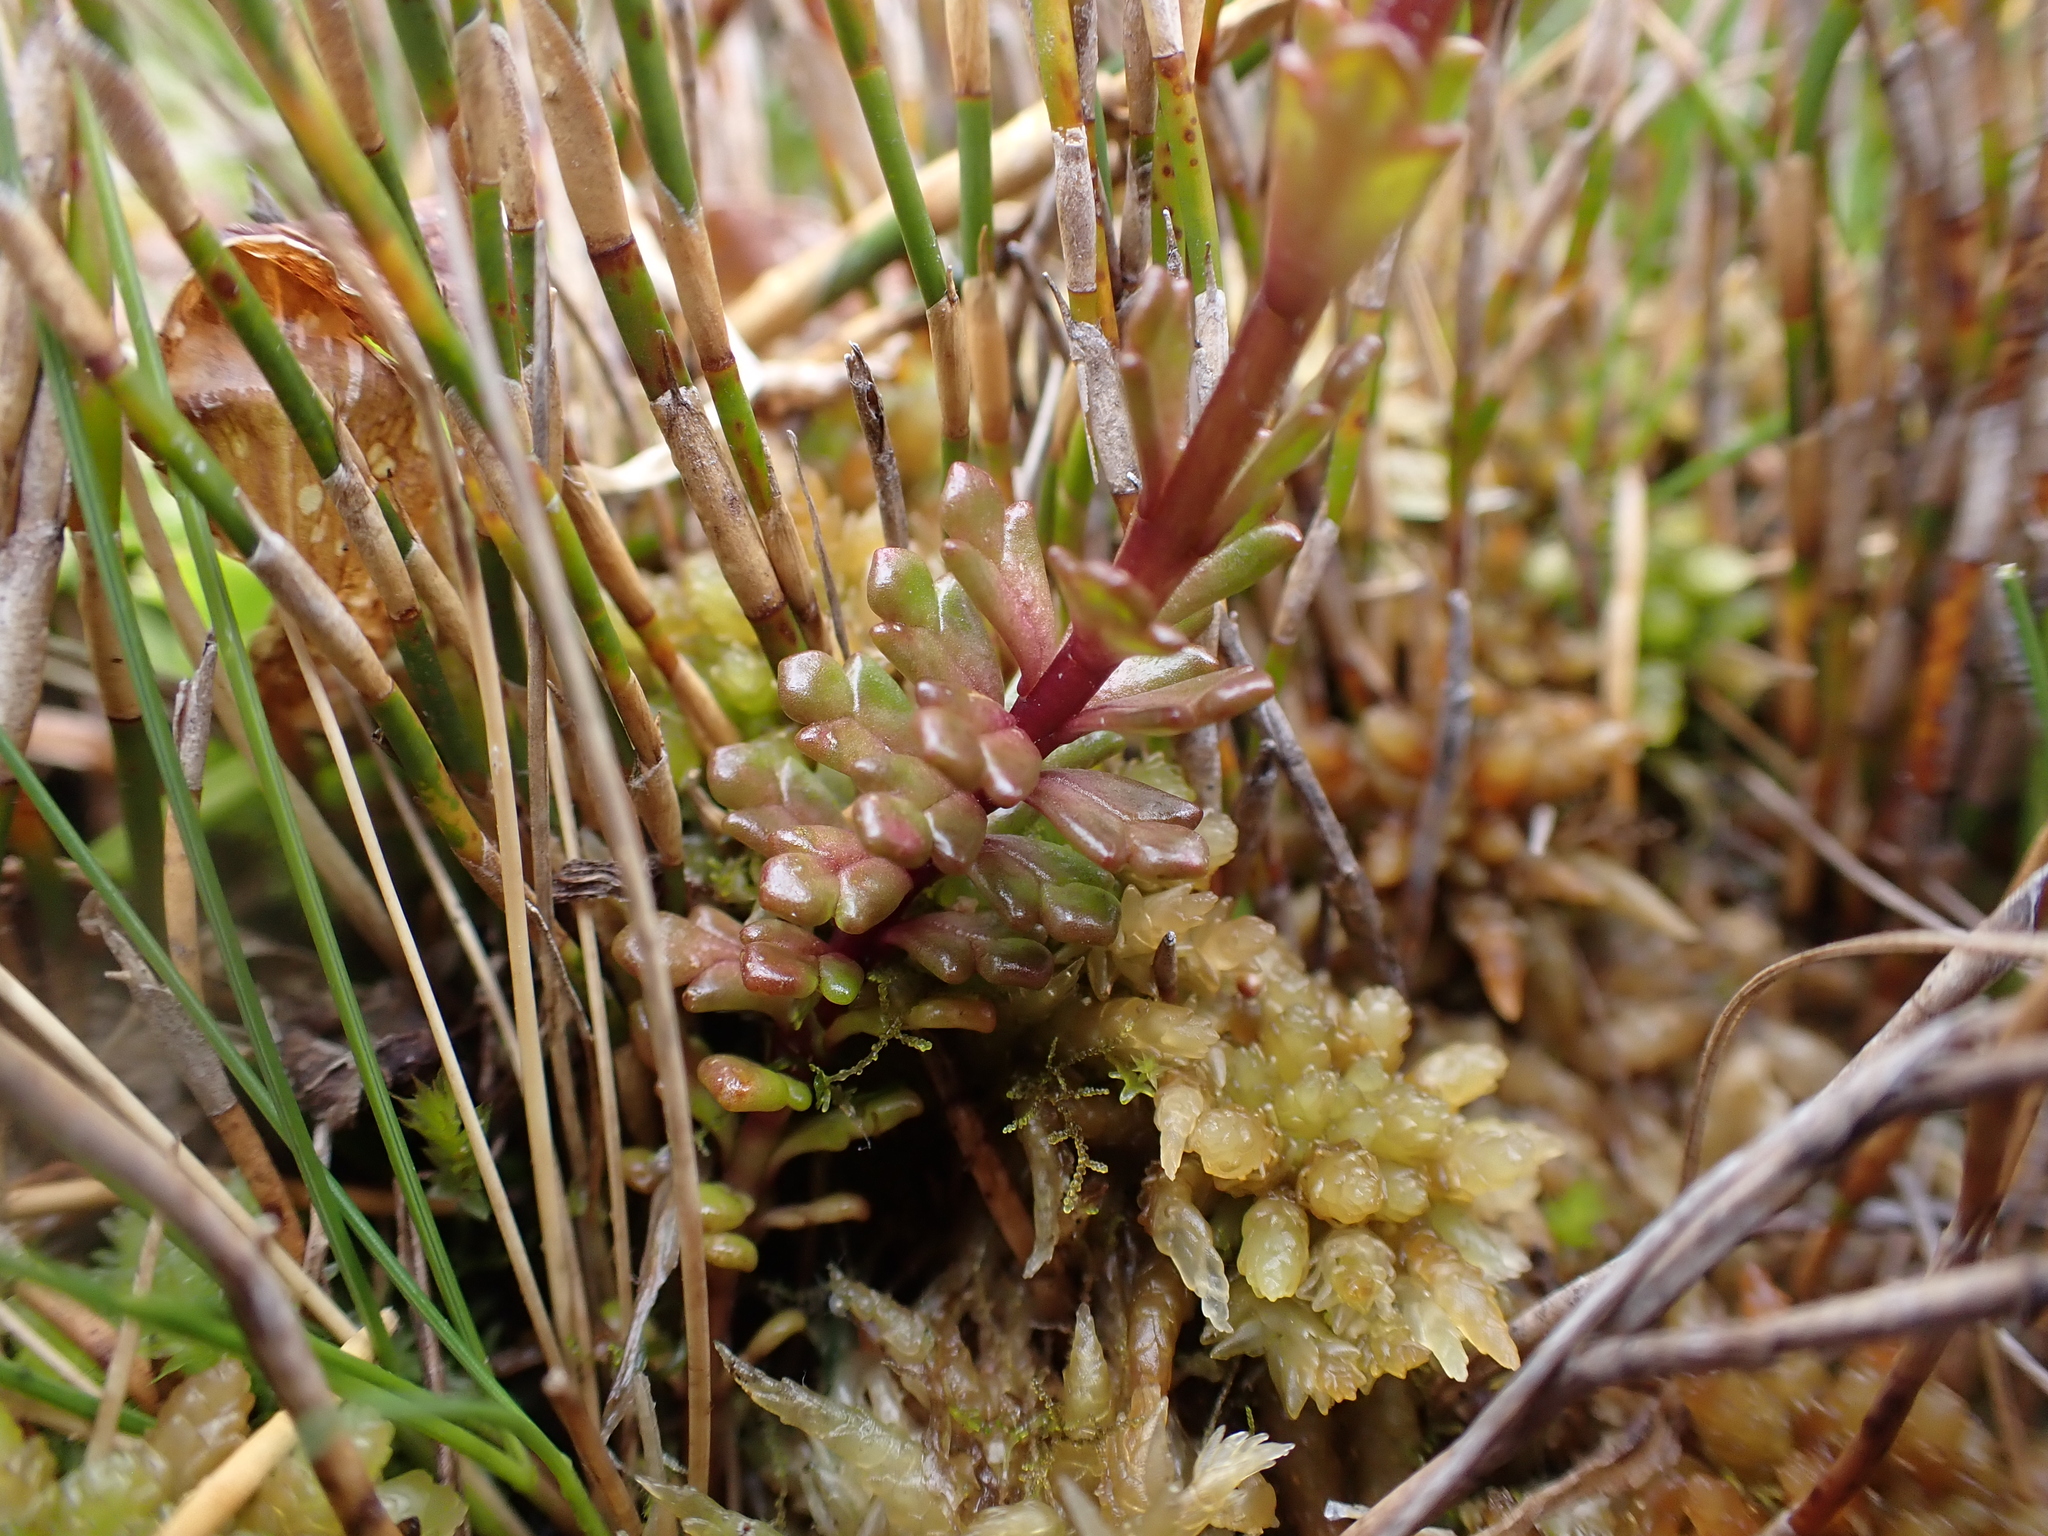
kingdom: Plantae
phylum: Tracheophyta
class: Magnoliopsida
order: Lamiales
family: Orobanchaceae
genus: Euphrasia
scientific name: Euphrasia gibbsiae
